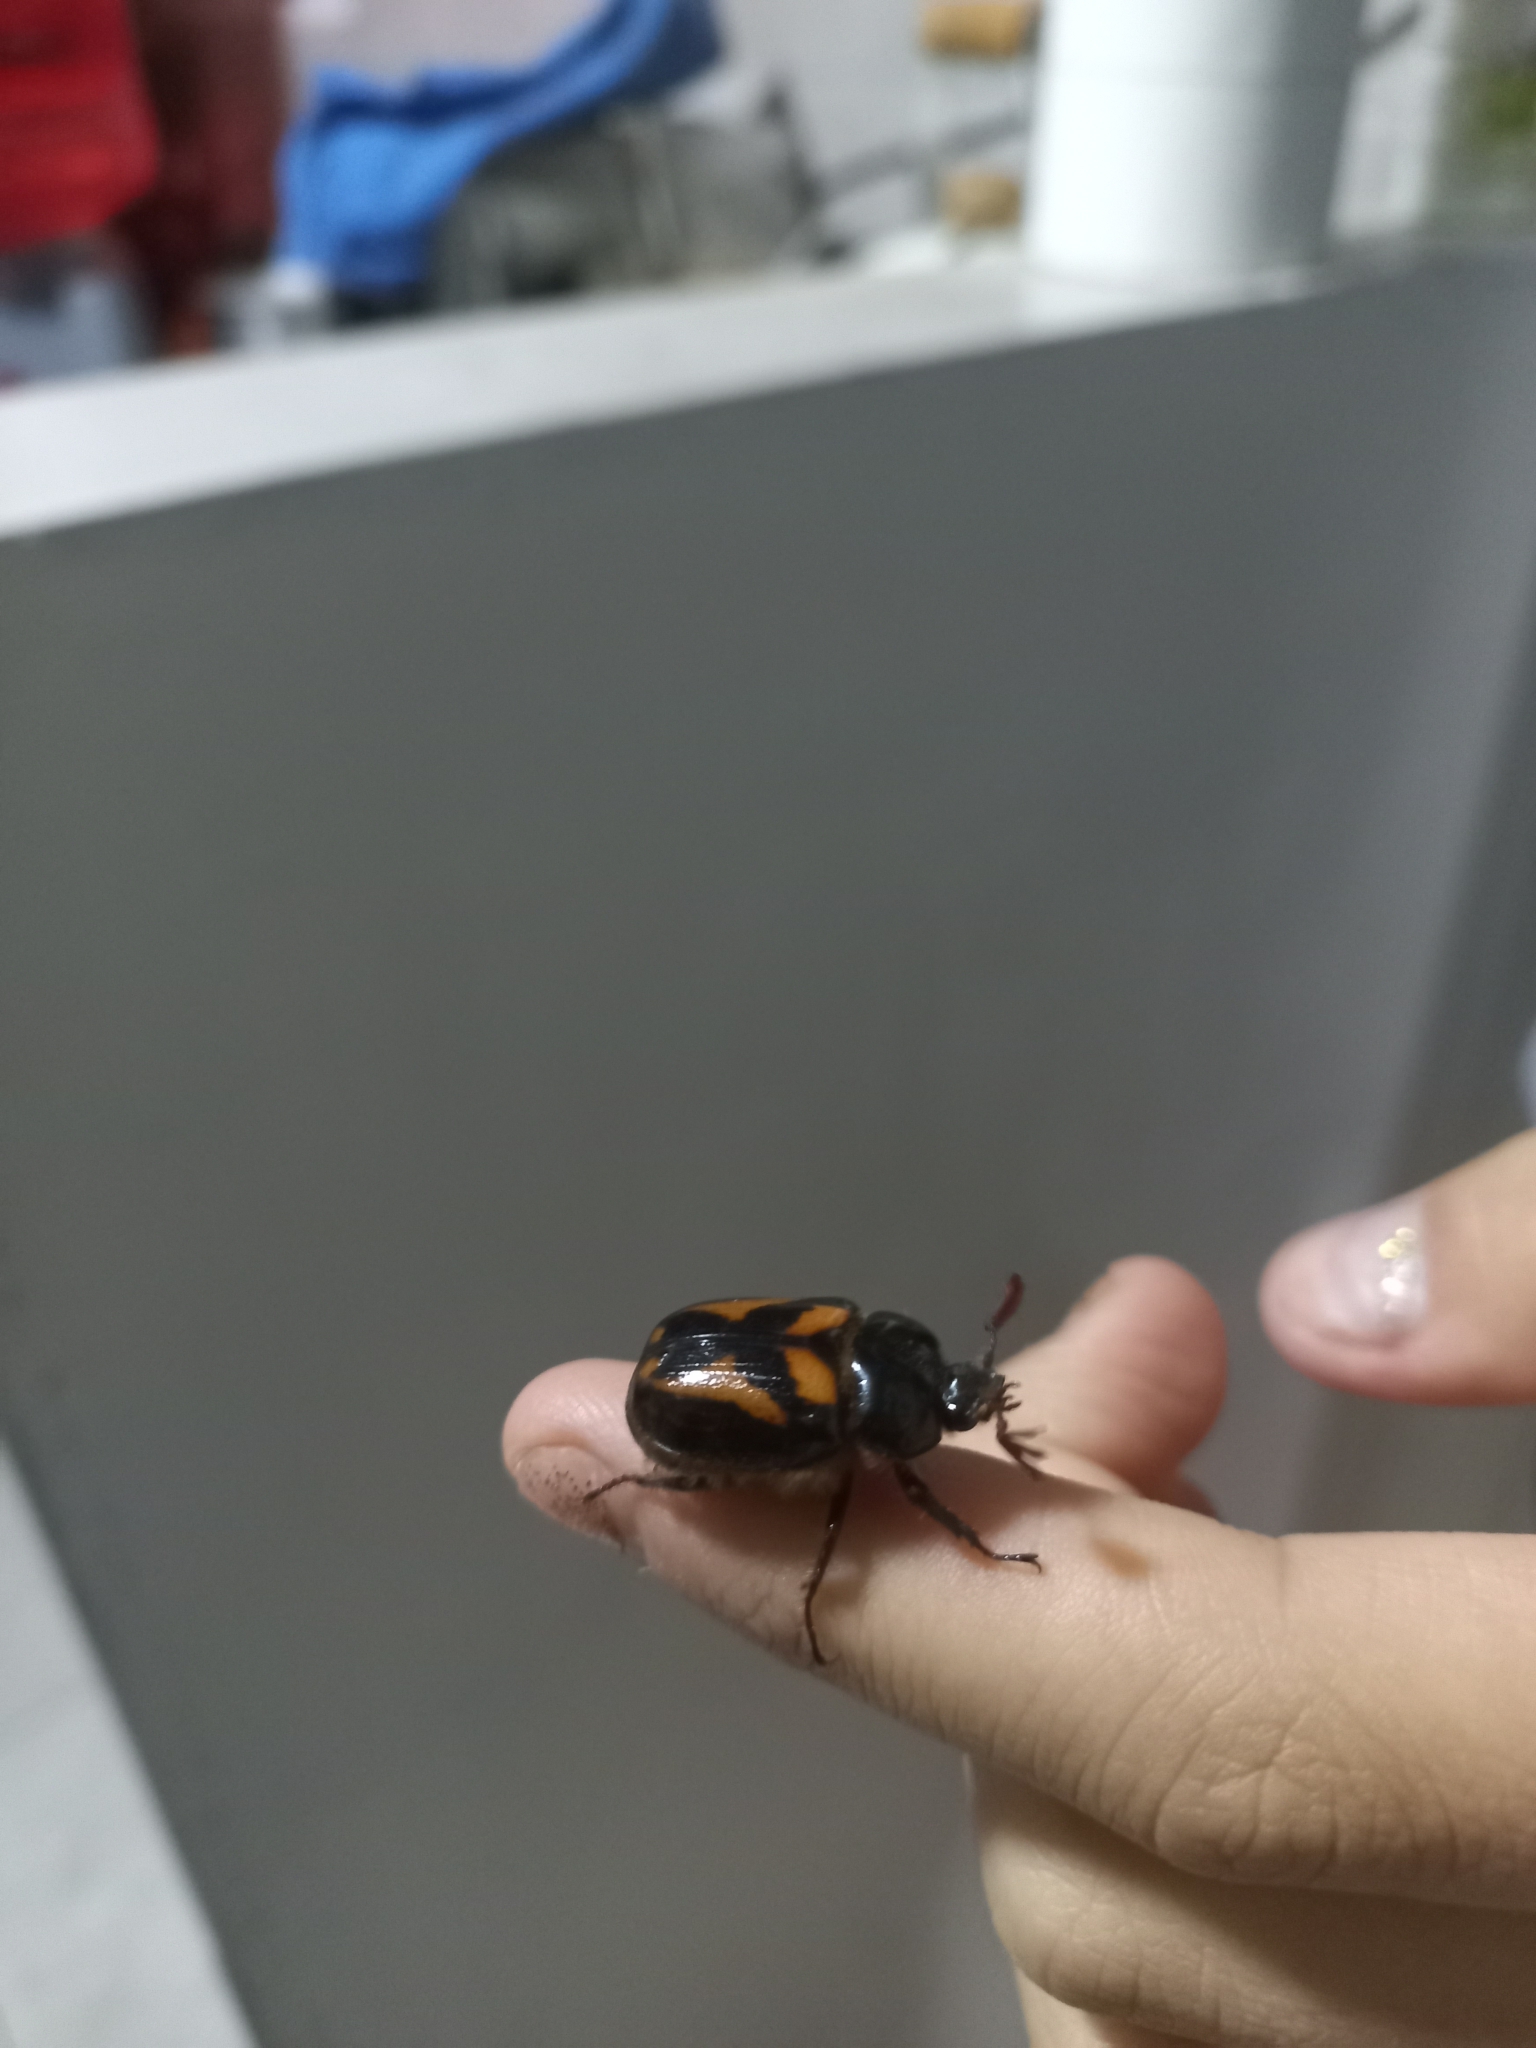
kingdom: Animalia
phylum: Arthropoda
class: Insecta
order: Coleoptera
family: Scarabaeidae
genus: Oryctomorphus
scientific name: Oryctomorphus bimaculatus
